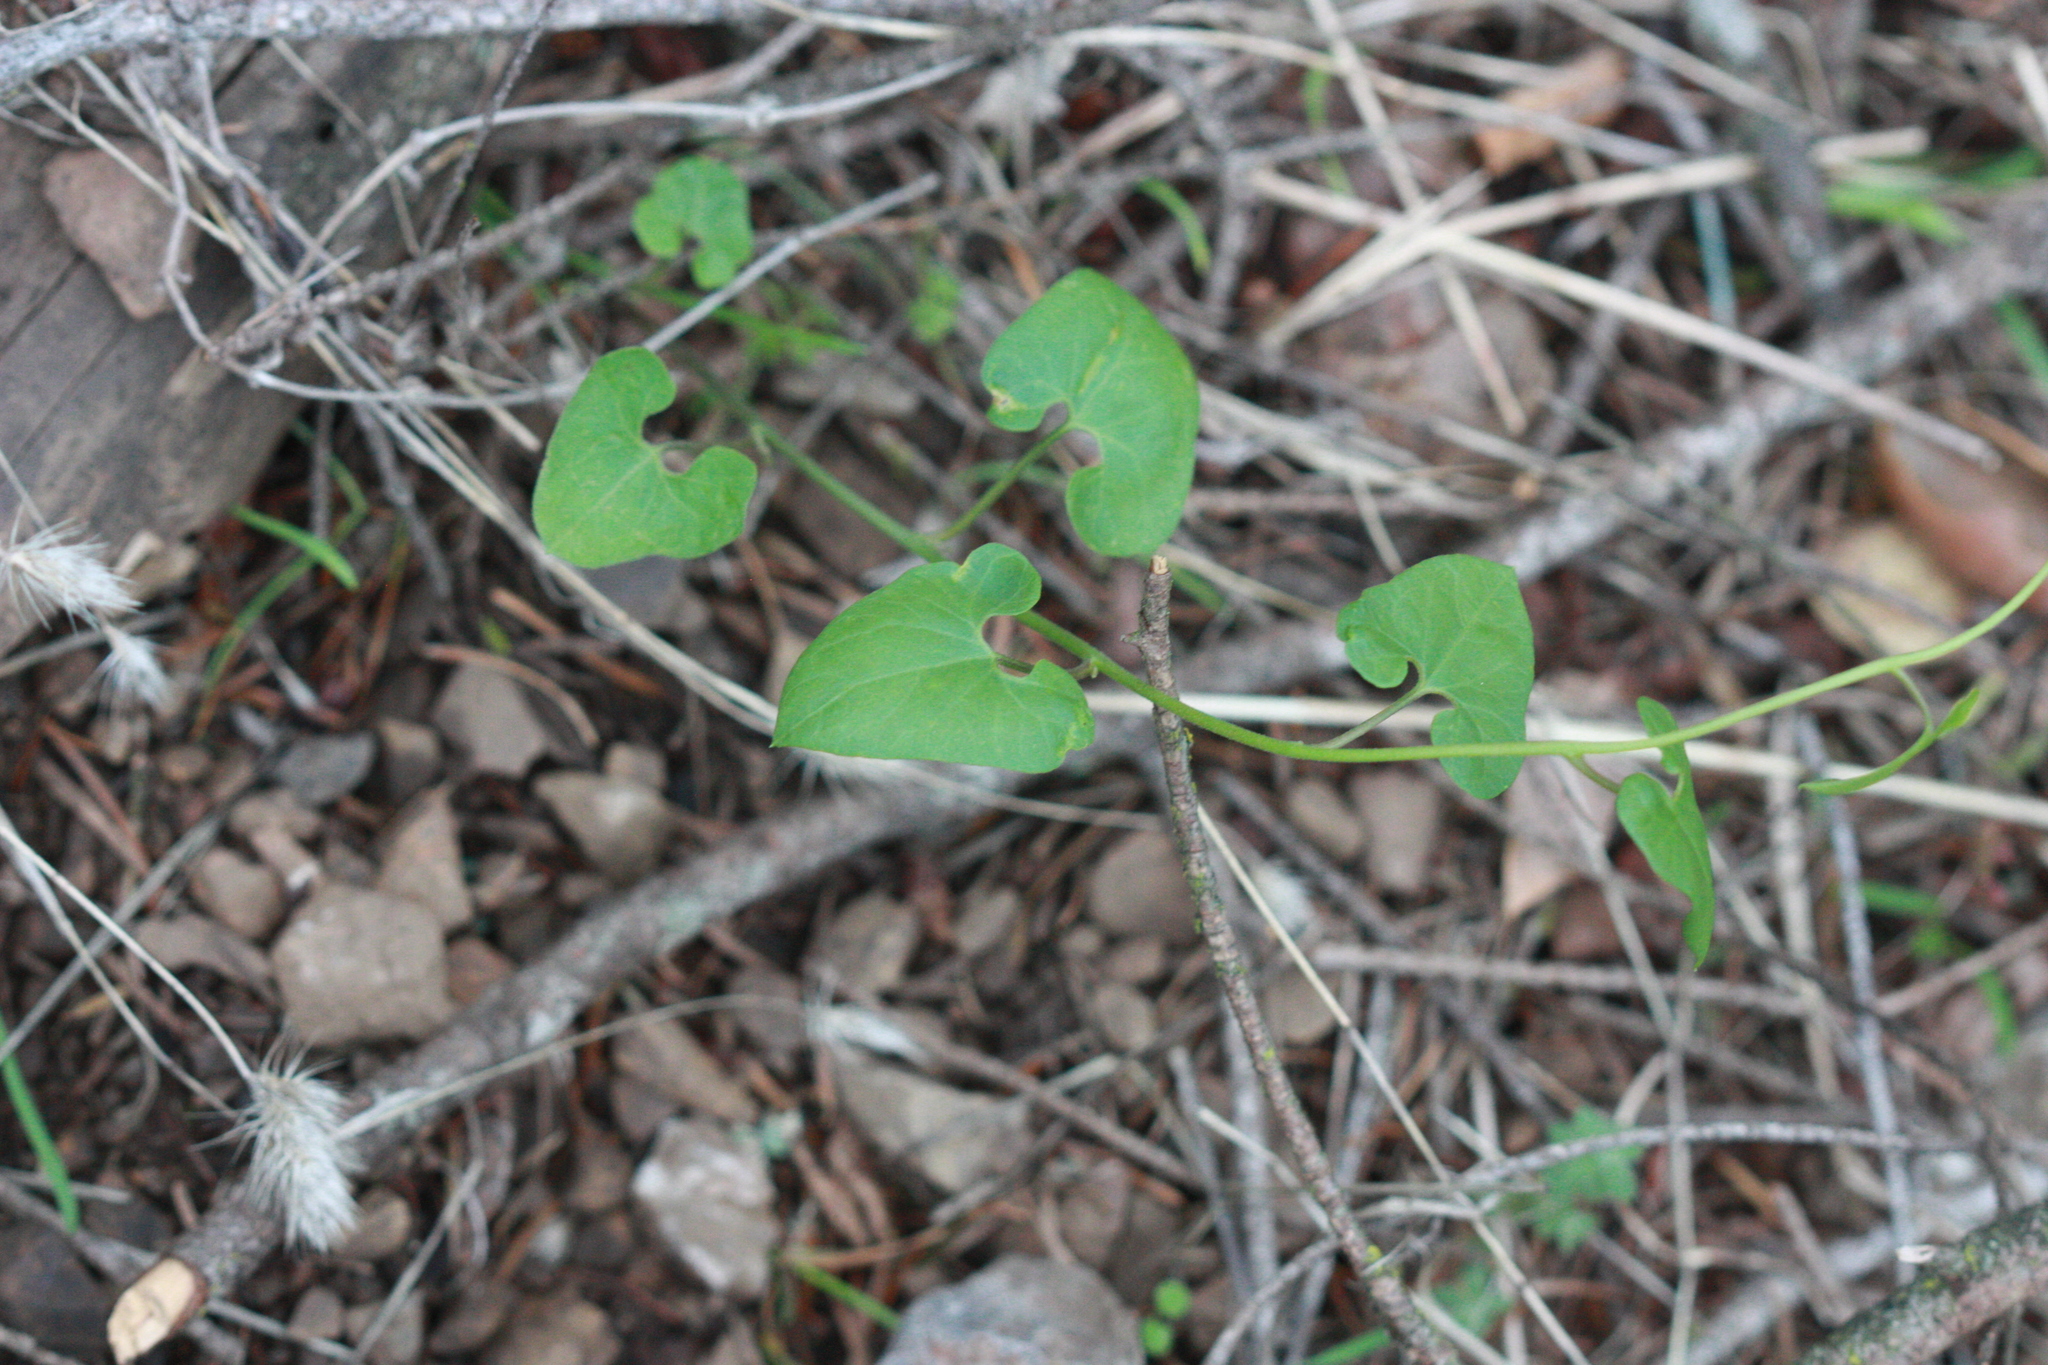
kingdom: Plantae
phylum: Tracheophyta
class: Magnoliopsida
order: Piperales
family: Aristolochiaceae
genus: Isotrema
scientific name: Isotrema californicum
